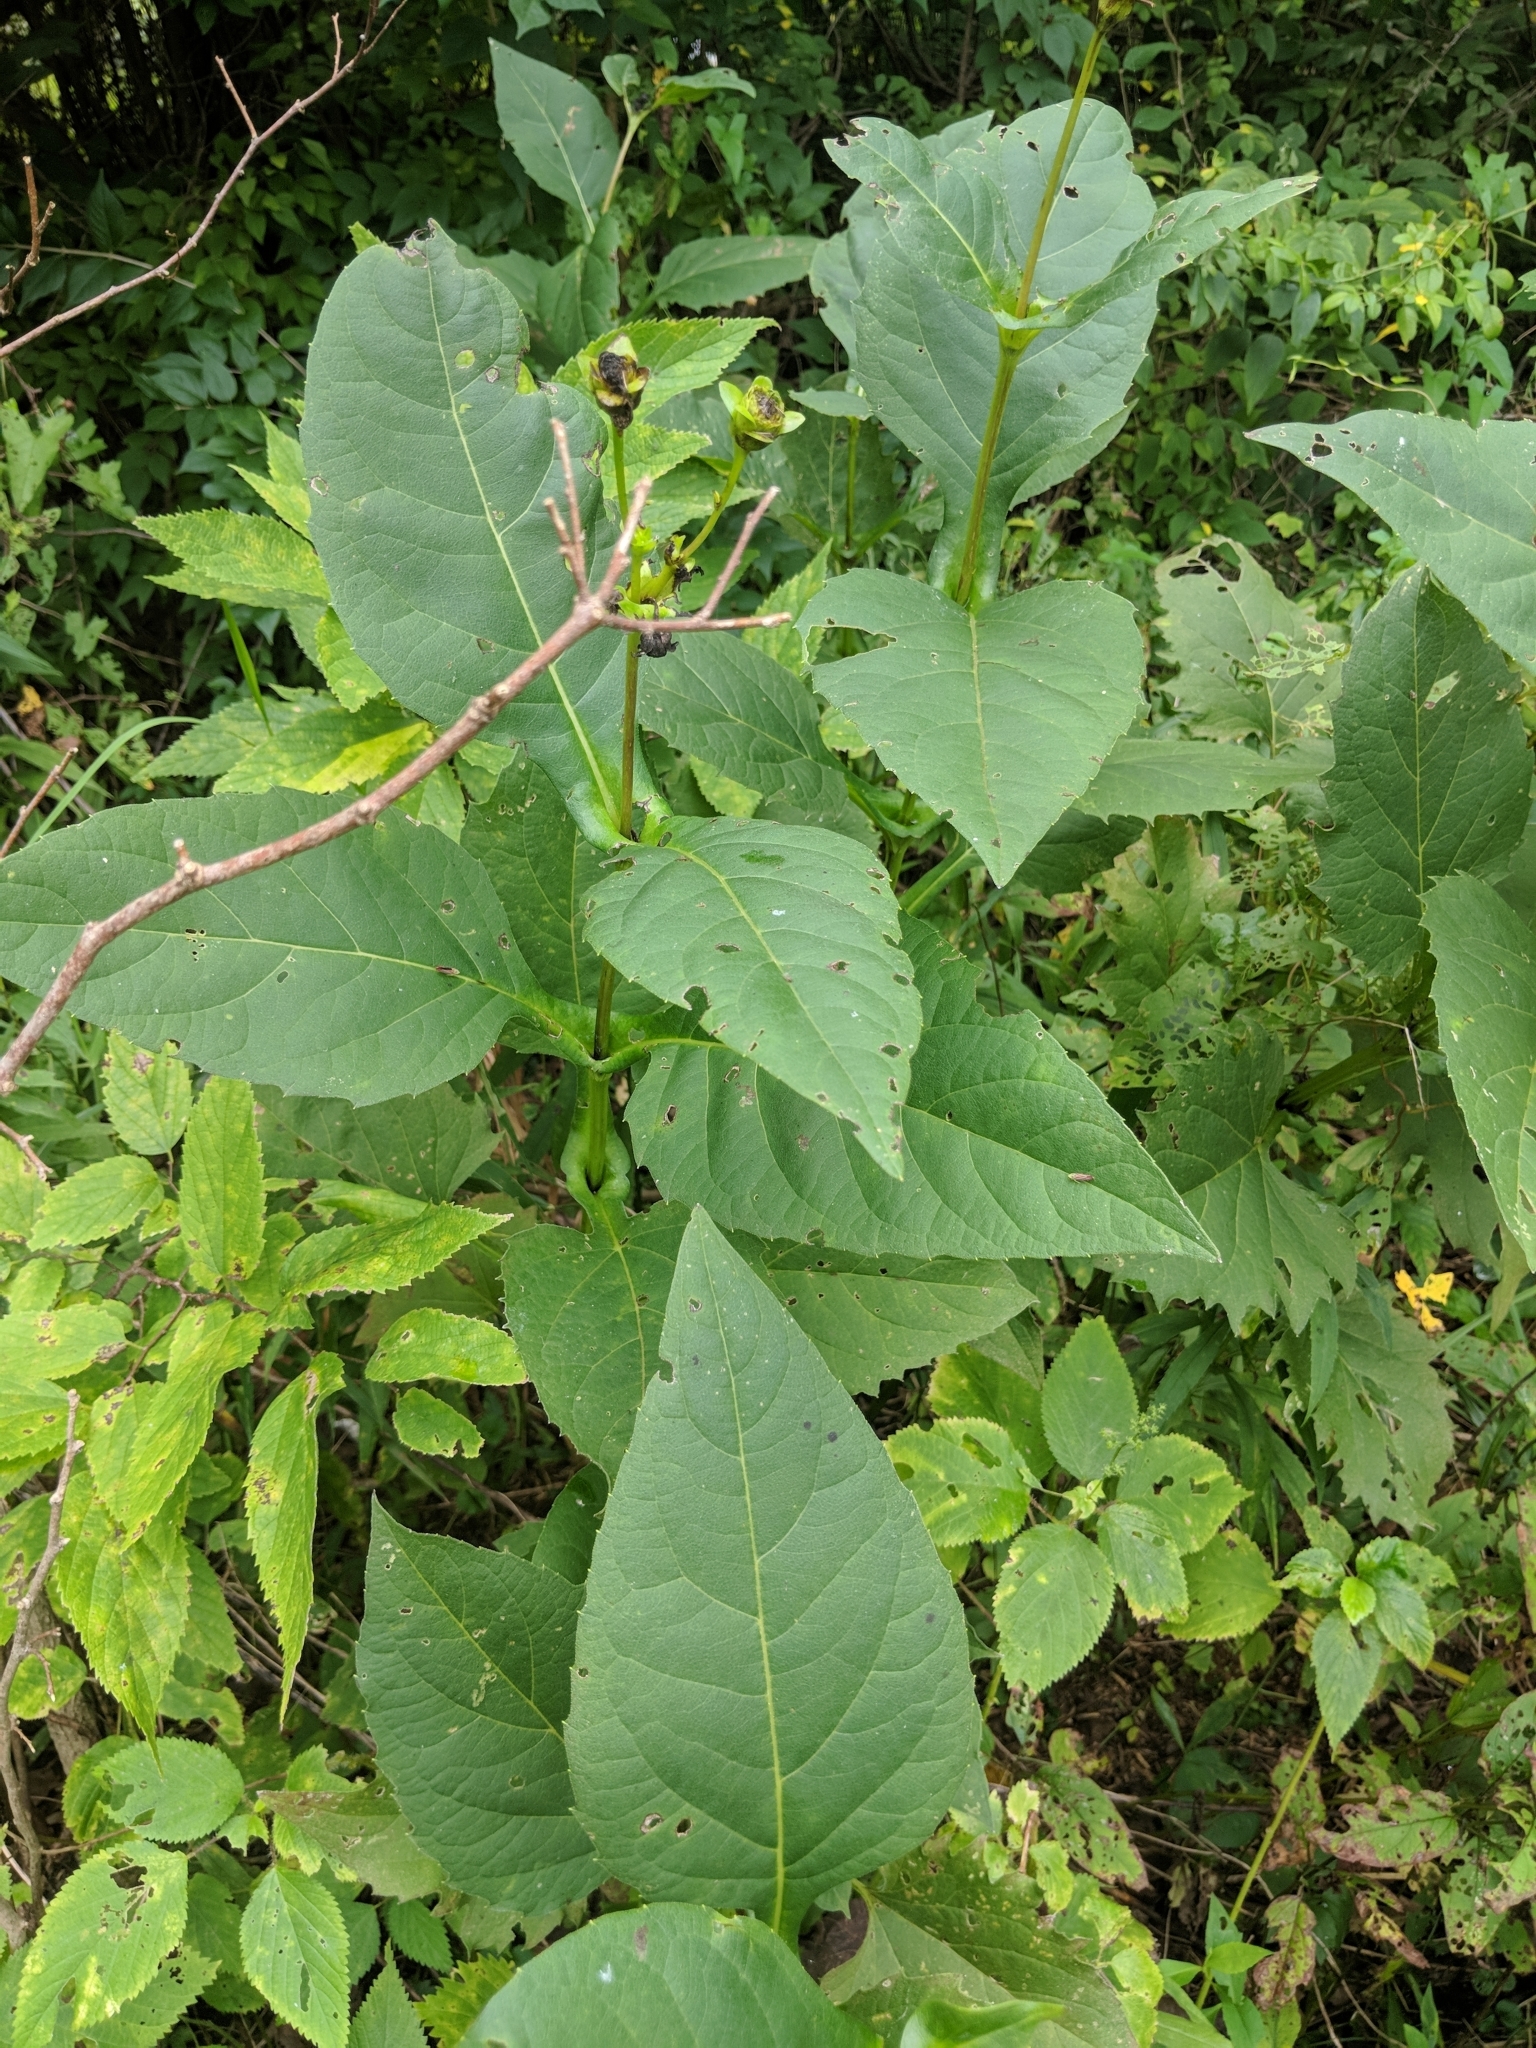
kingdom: Plantae
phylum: Tracheophyta
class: Magnoliopsida
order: Asterales
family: Asteraceae
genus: Silphium
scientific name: Silphium perfoliatum
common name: Cup-plant
